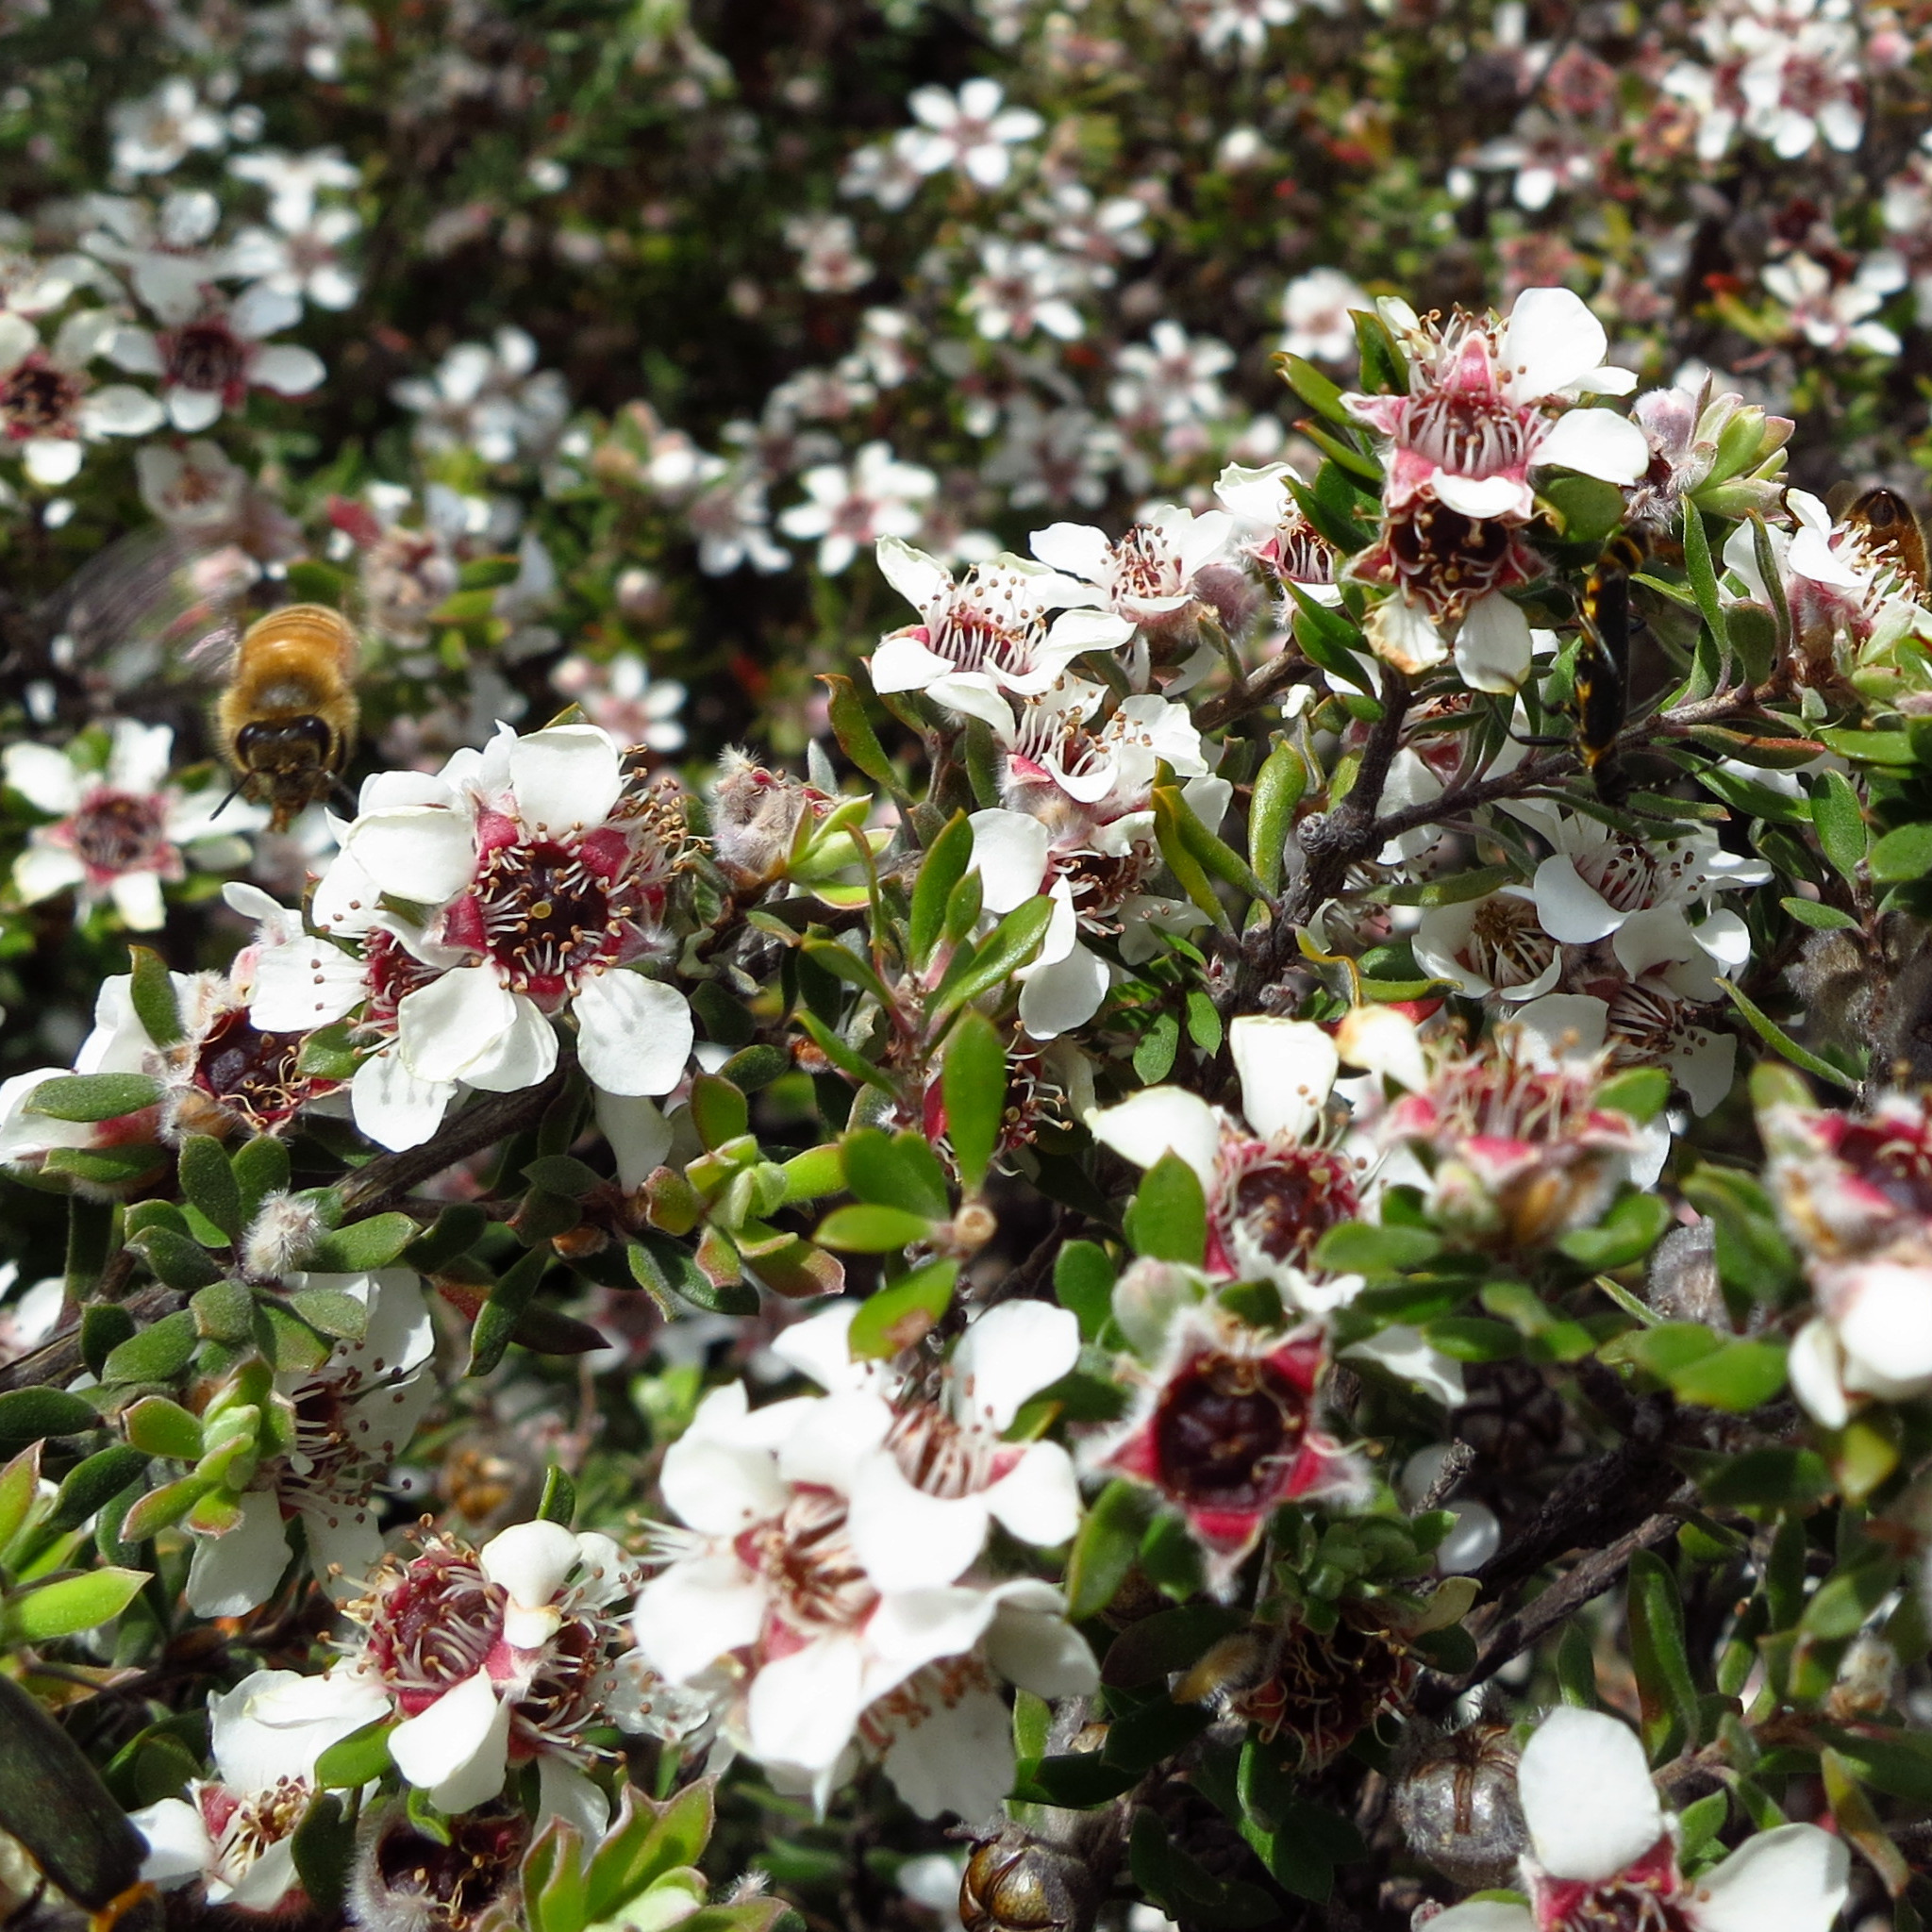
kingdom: Plantae
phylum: Tracheophyta
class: Magnoliopsida
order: Myrtales
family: Myrtaceae
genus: Leptospermum
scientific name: Leptospermum lanigerum
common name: Woolly tea-tree
